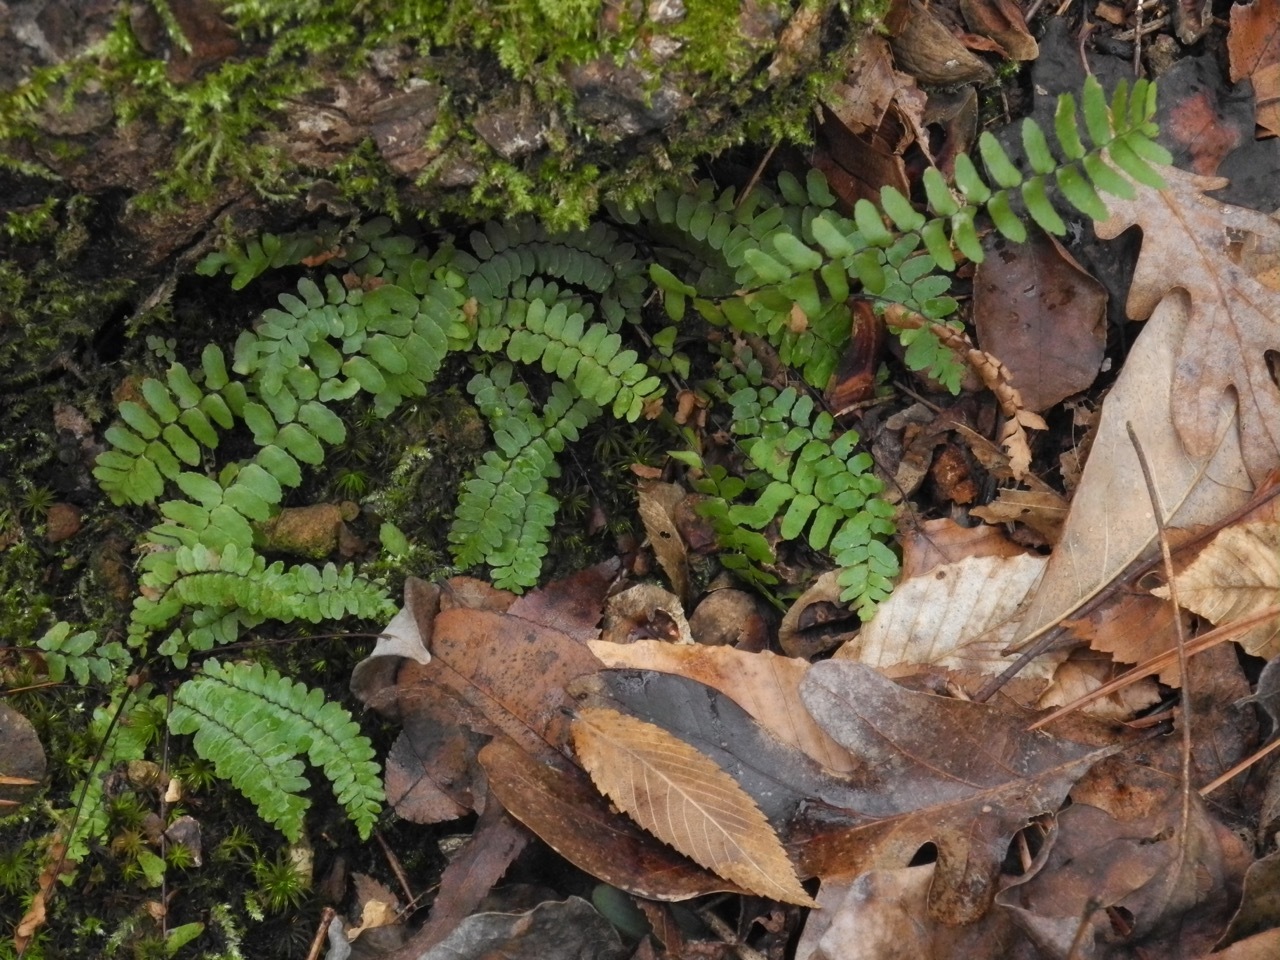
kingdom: Plantae
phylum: Tracheophyta
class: Polypodiopsida
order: Polypodiales
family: Aspleniaceae
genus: Asplenium
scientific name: Asplenium platyneuron
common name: Ebony spleenwort
